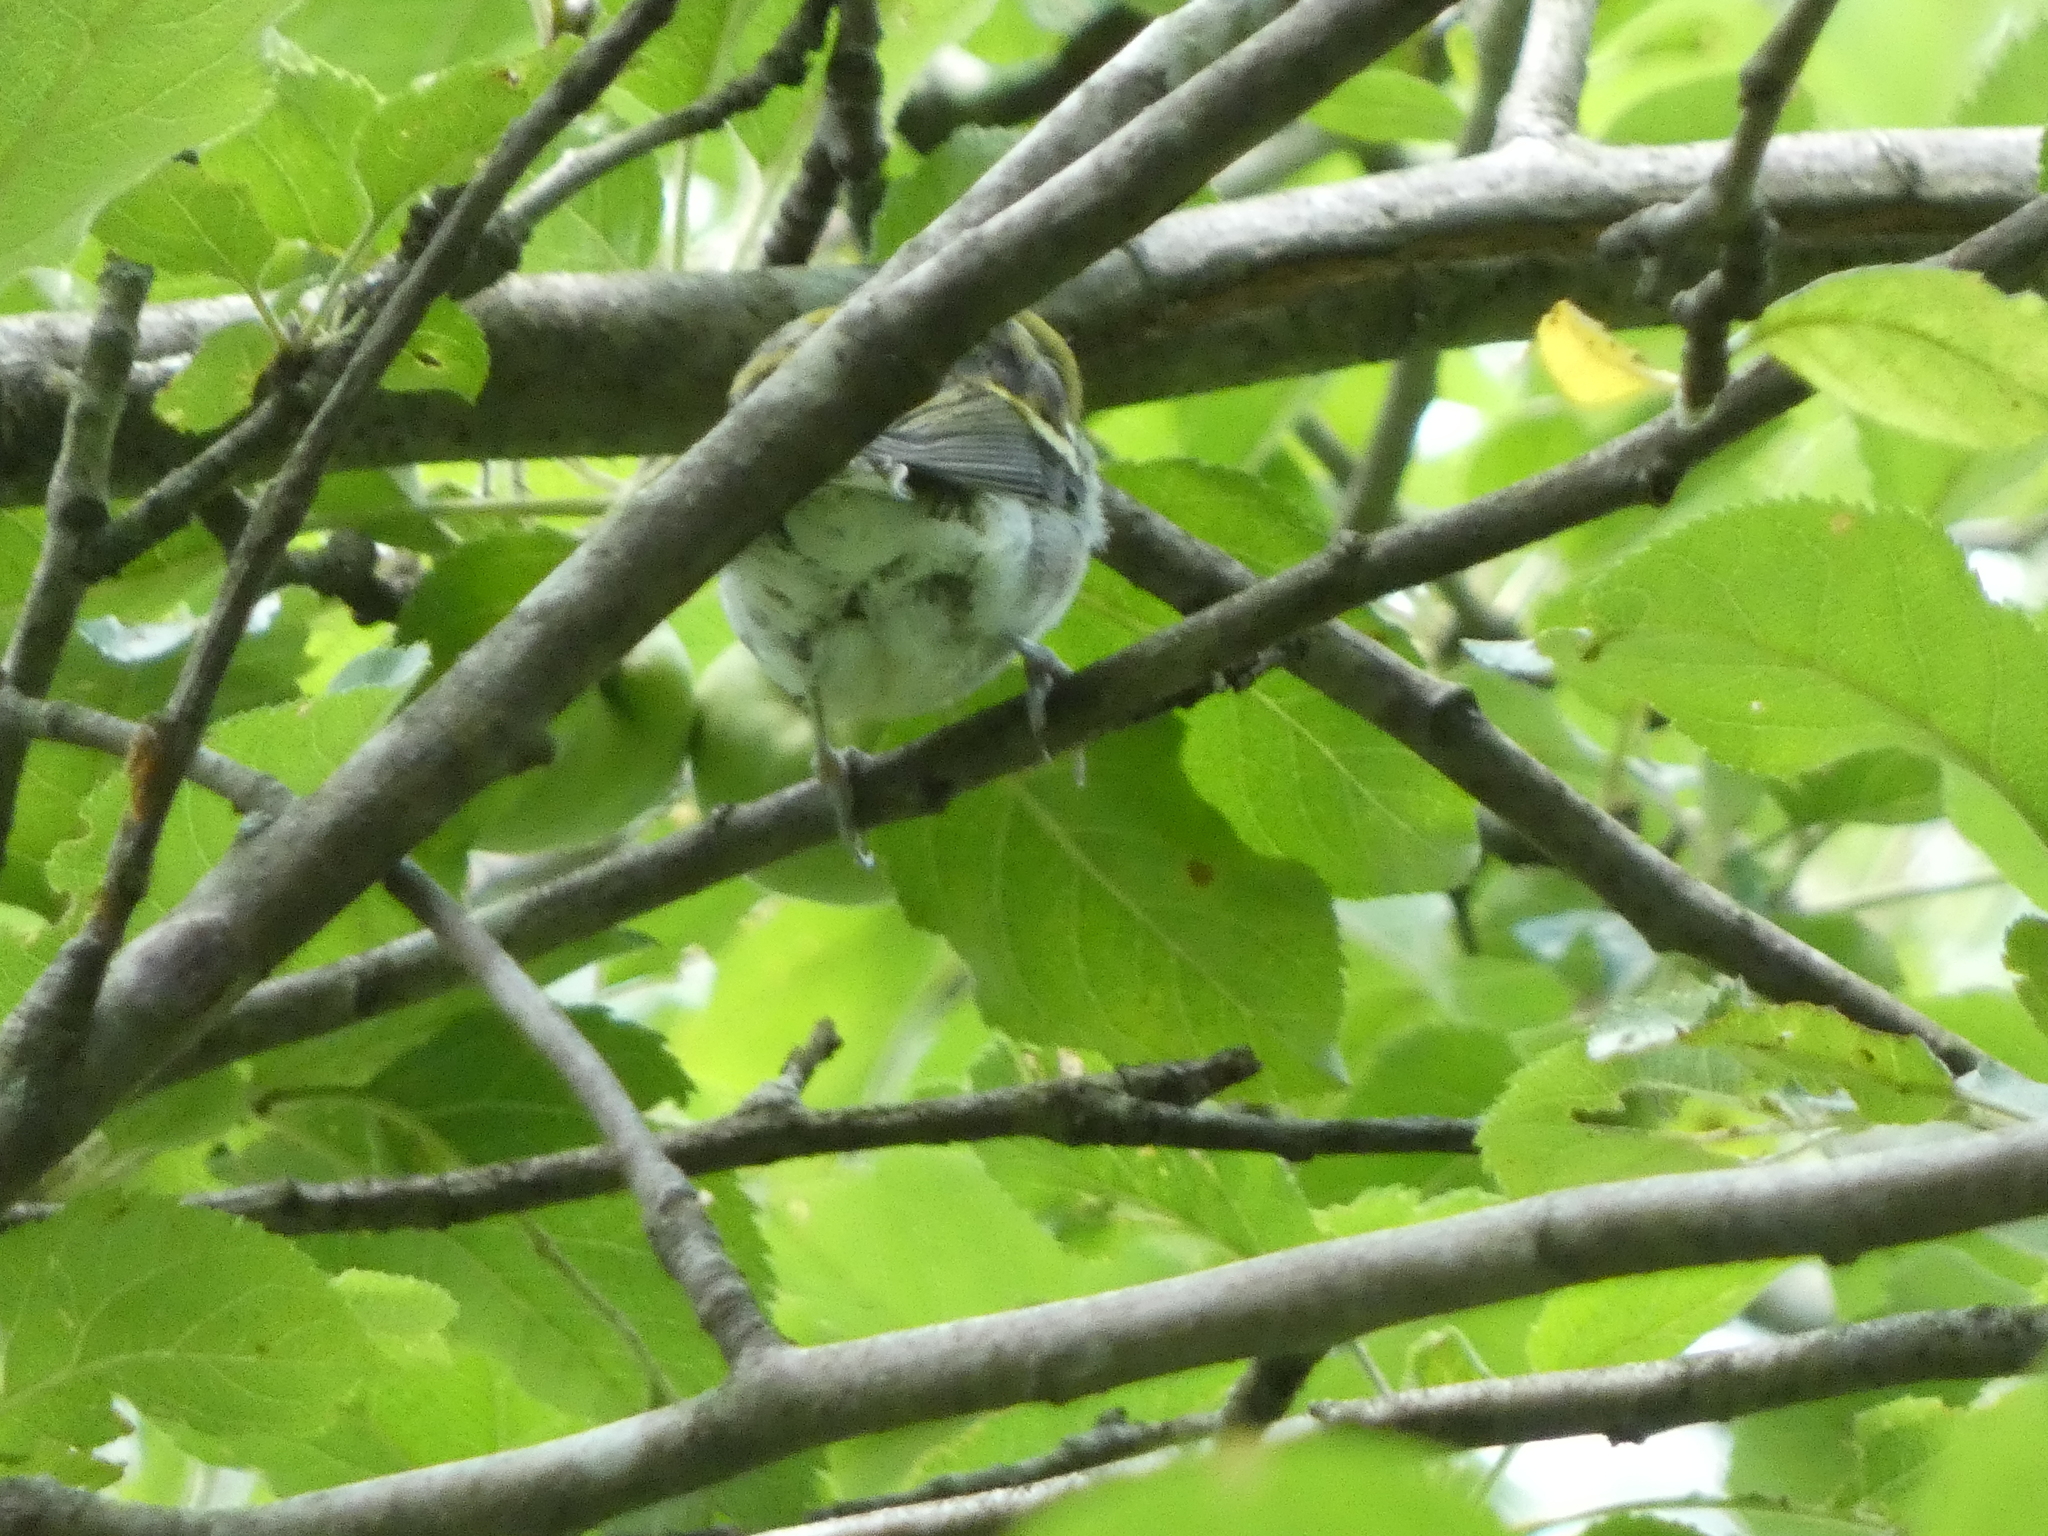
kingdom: Animalia
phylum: Chordata
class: Aves
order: Passeriformes
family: Parulidae
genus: Setophaga
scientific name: Setophaga pensylvanica
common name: Chestnut-sided warbler
